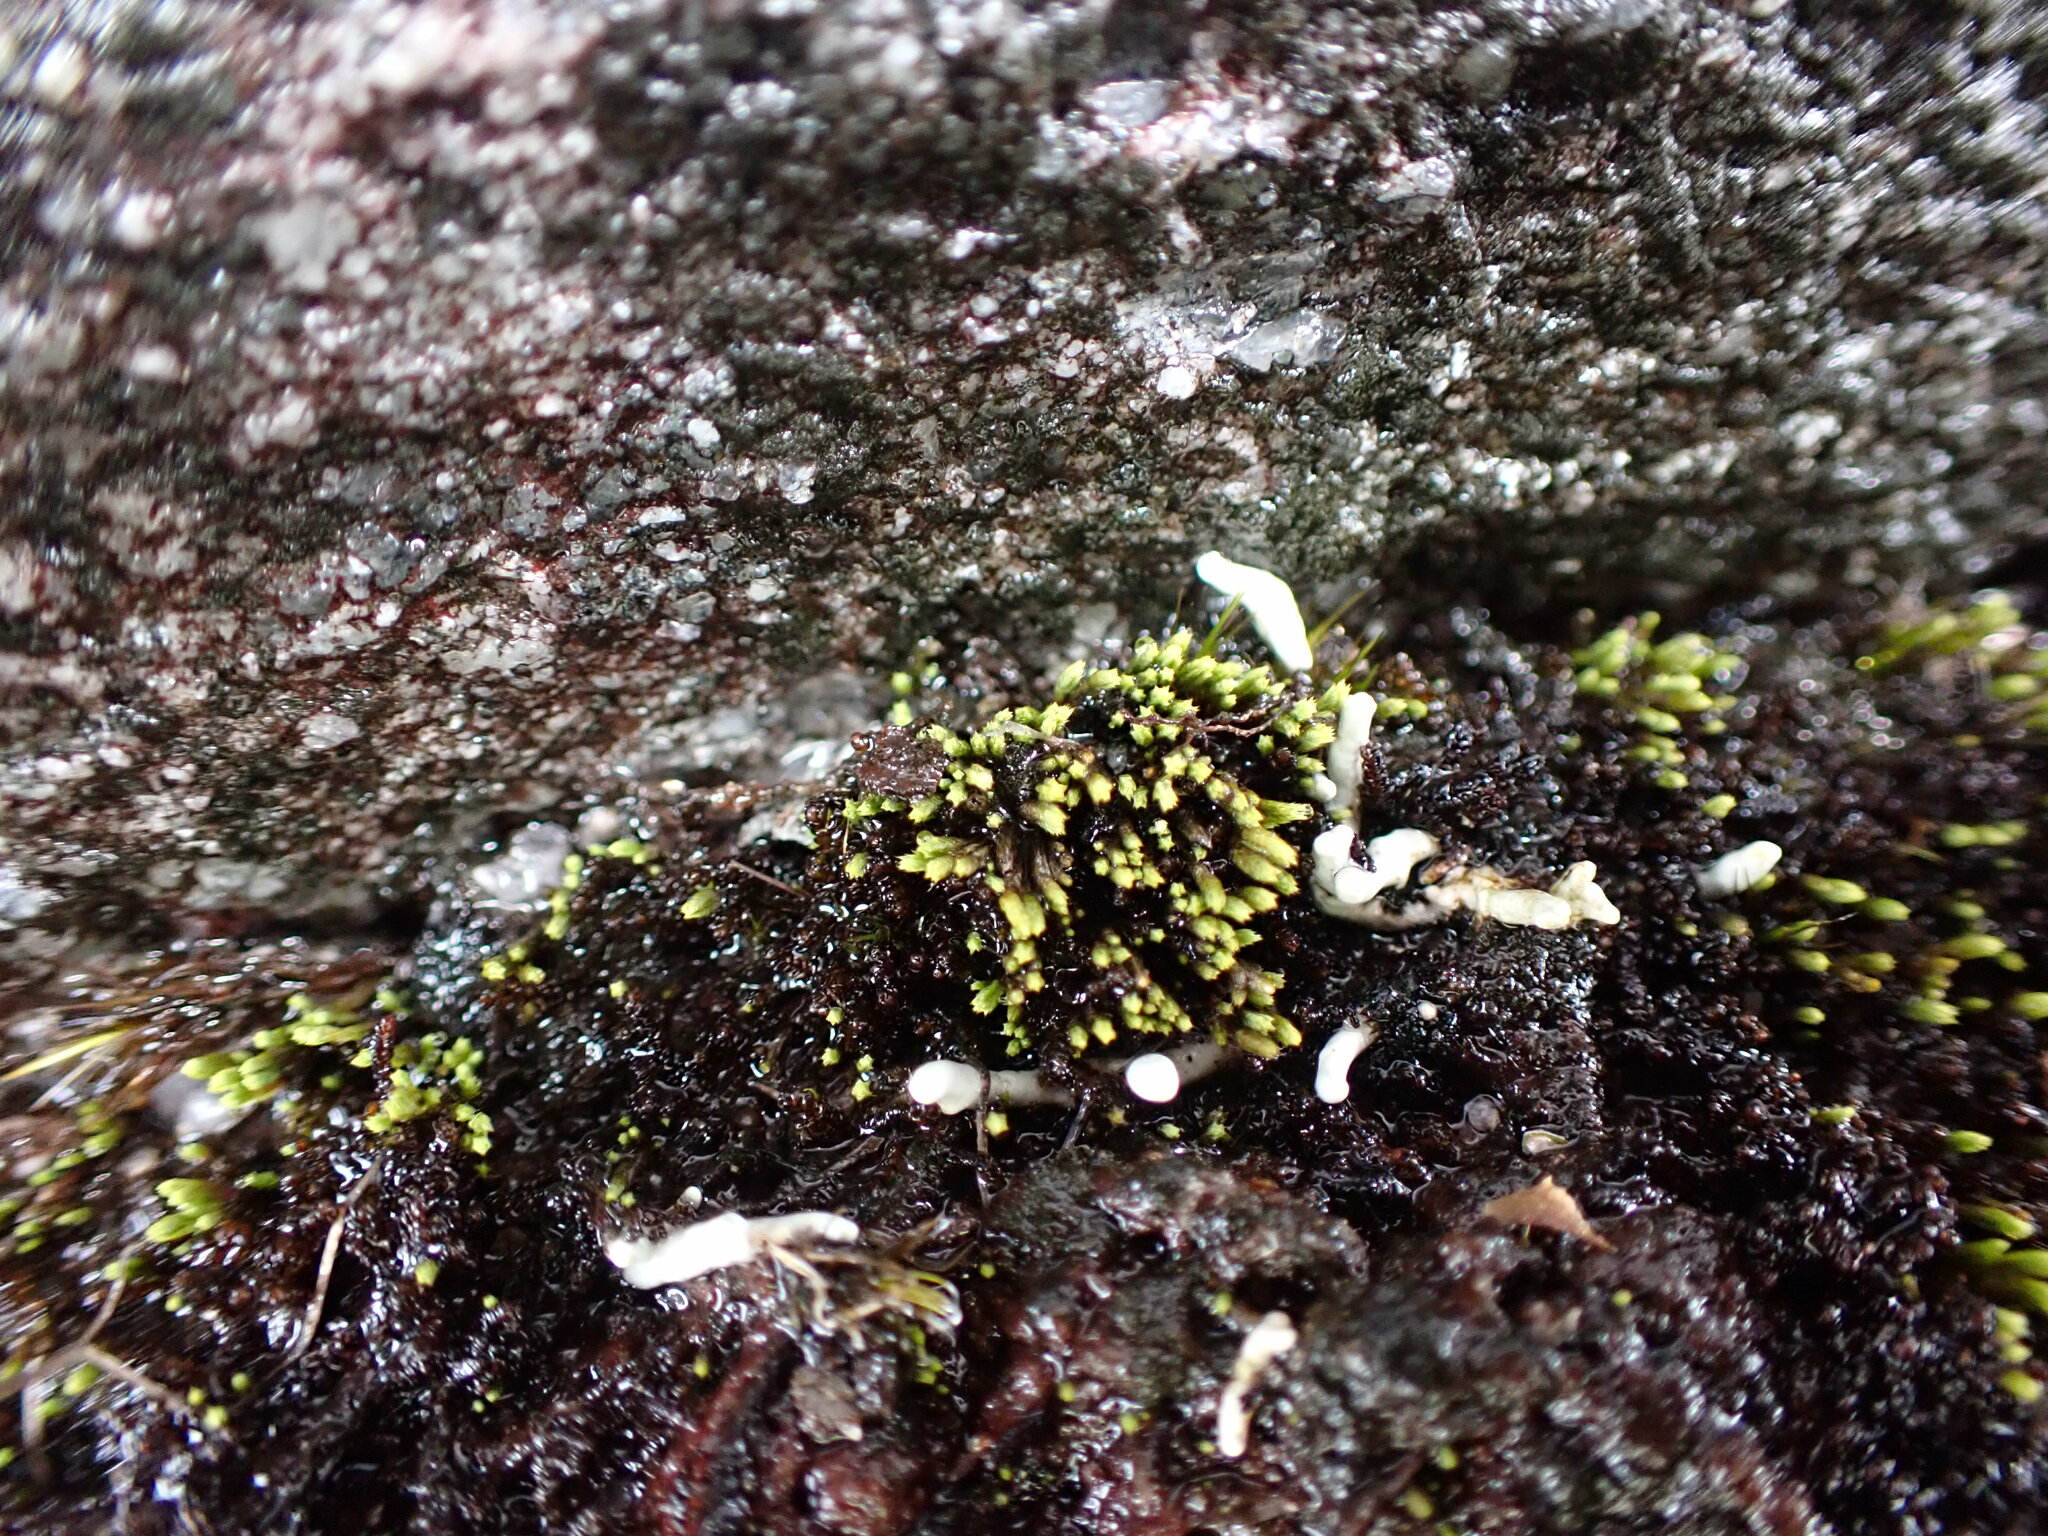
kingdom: Plantae
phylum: Bryophyta
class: Bryopsida
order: Bartramiales
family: Bartramiaceae
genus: Conostomum
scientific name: Conostomum tetragonum
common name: Helmet moss
